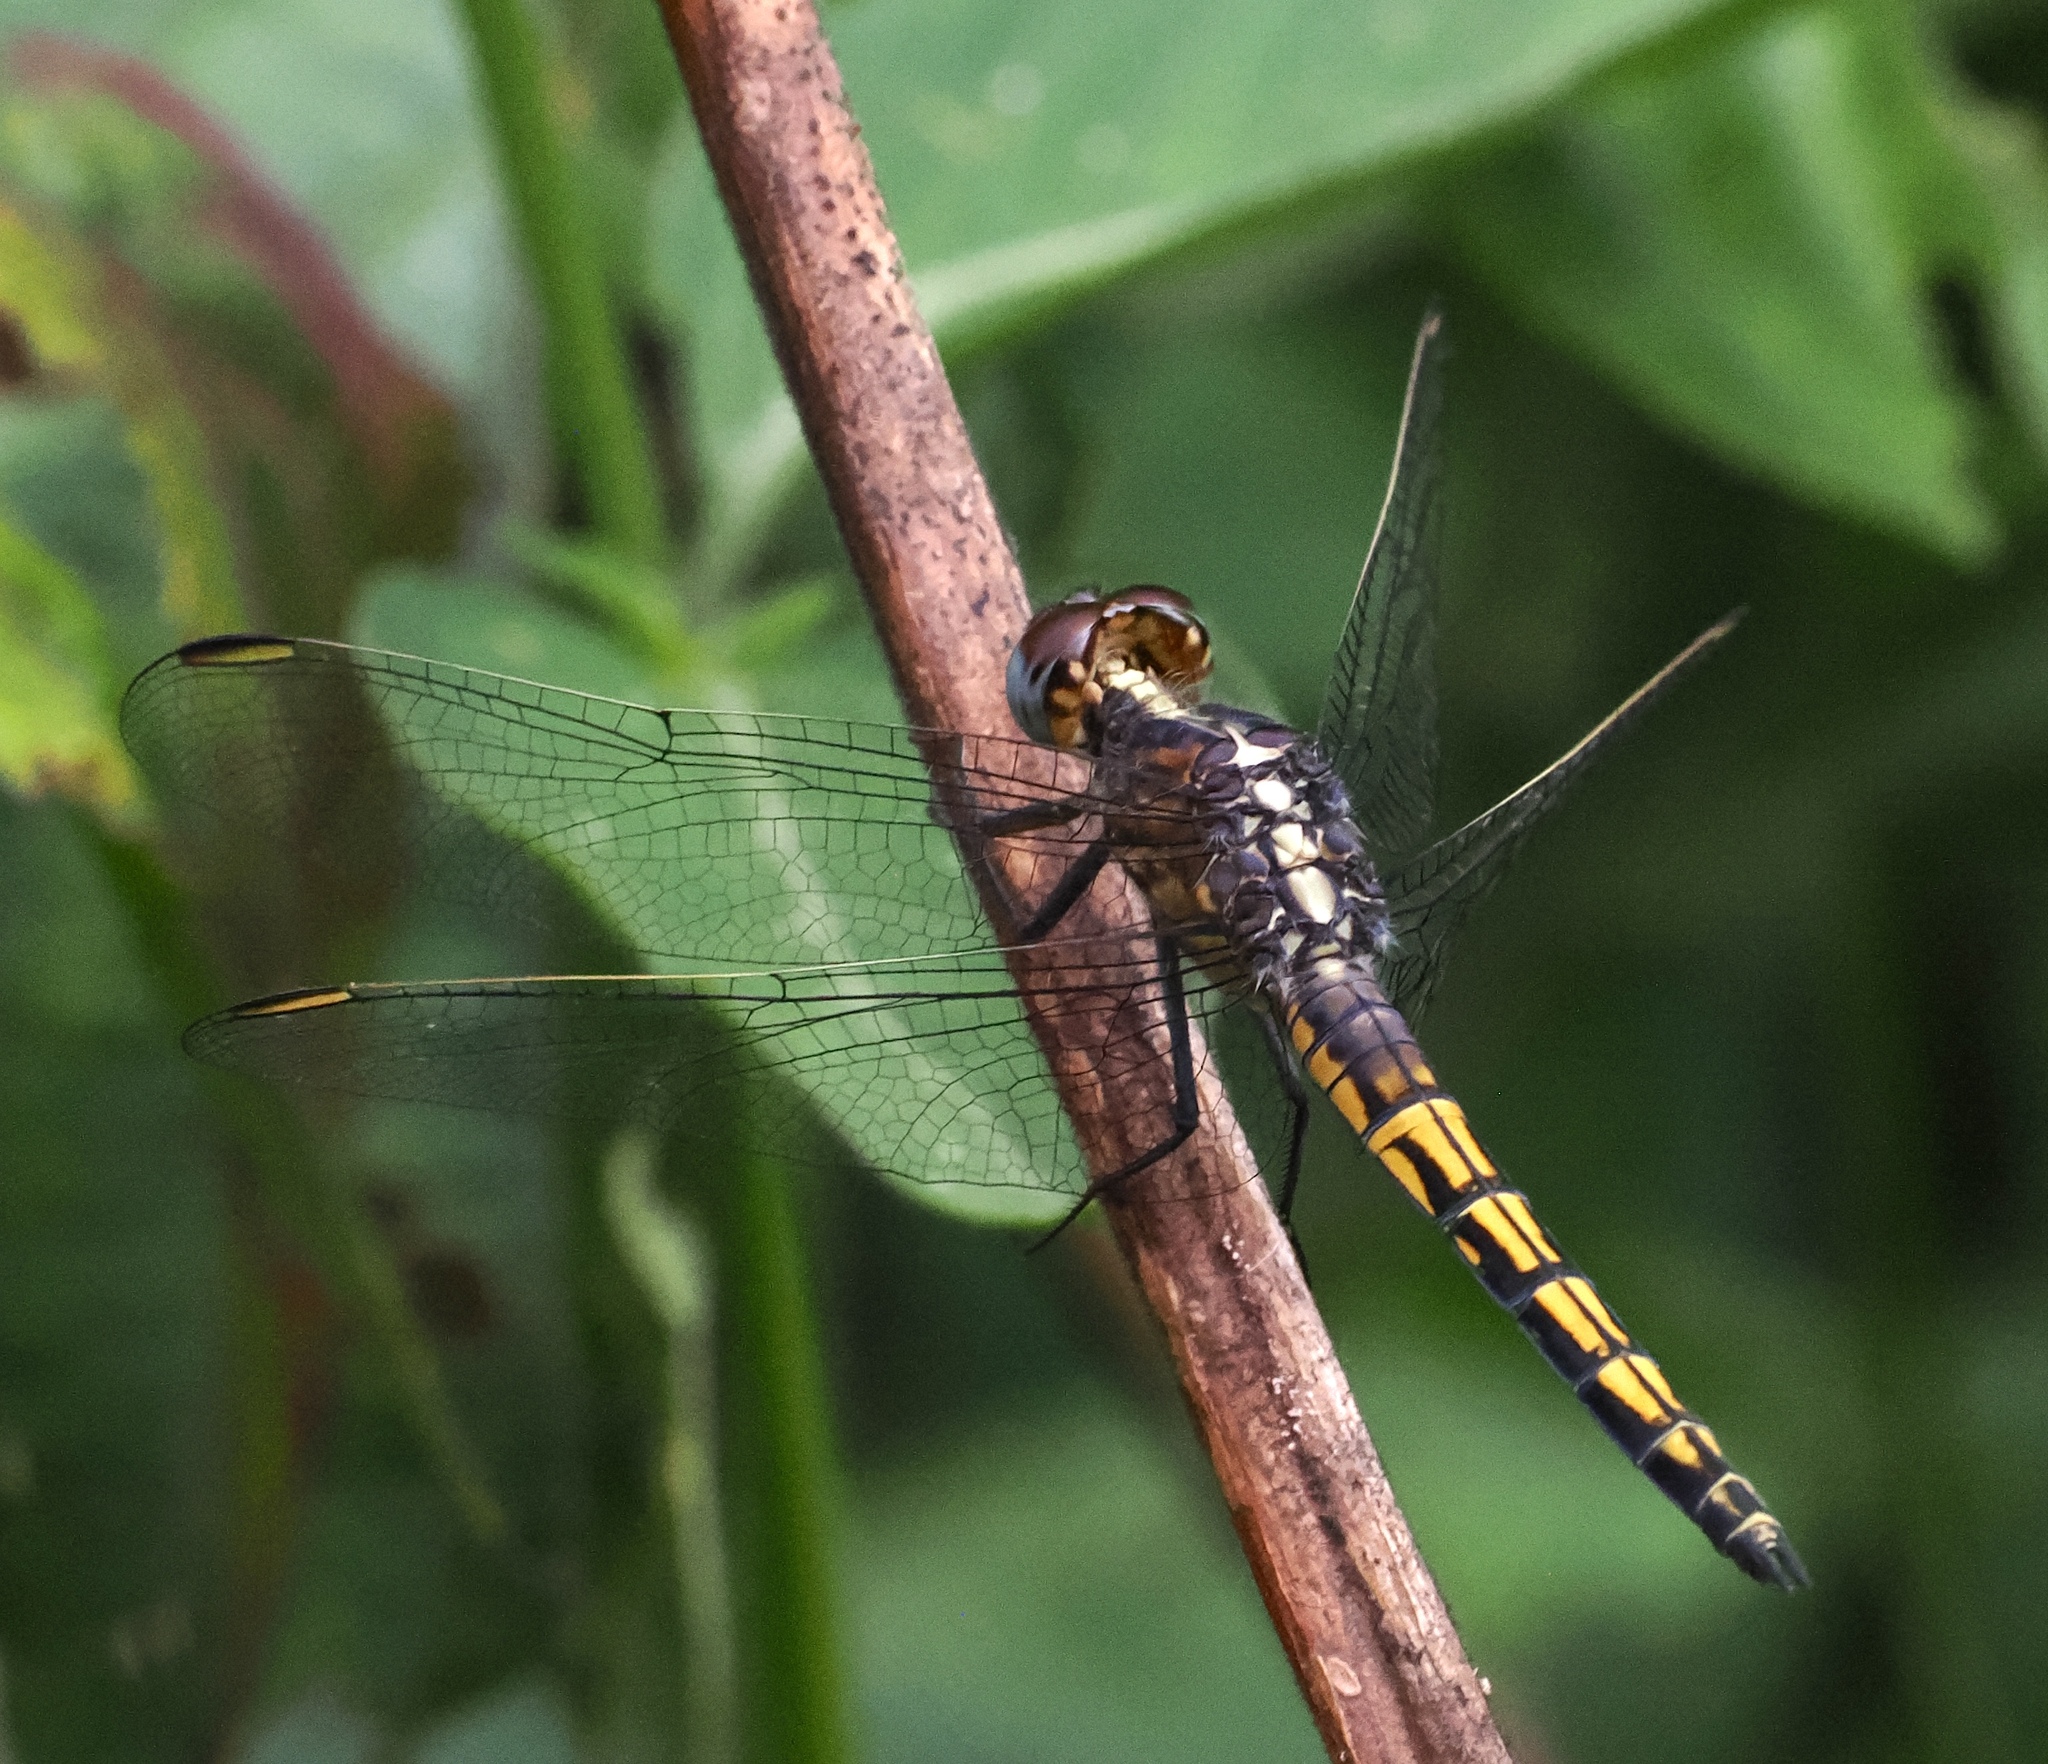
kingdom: Animalia
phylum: Arthropoda
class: Insecta
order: Odonata
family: Libellulidae
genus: Nesciothemis
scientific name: Nesciothemis pujoli
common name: Western blacktail
